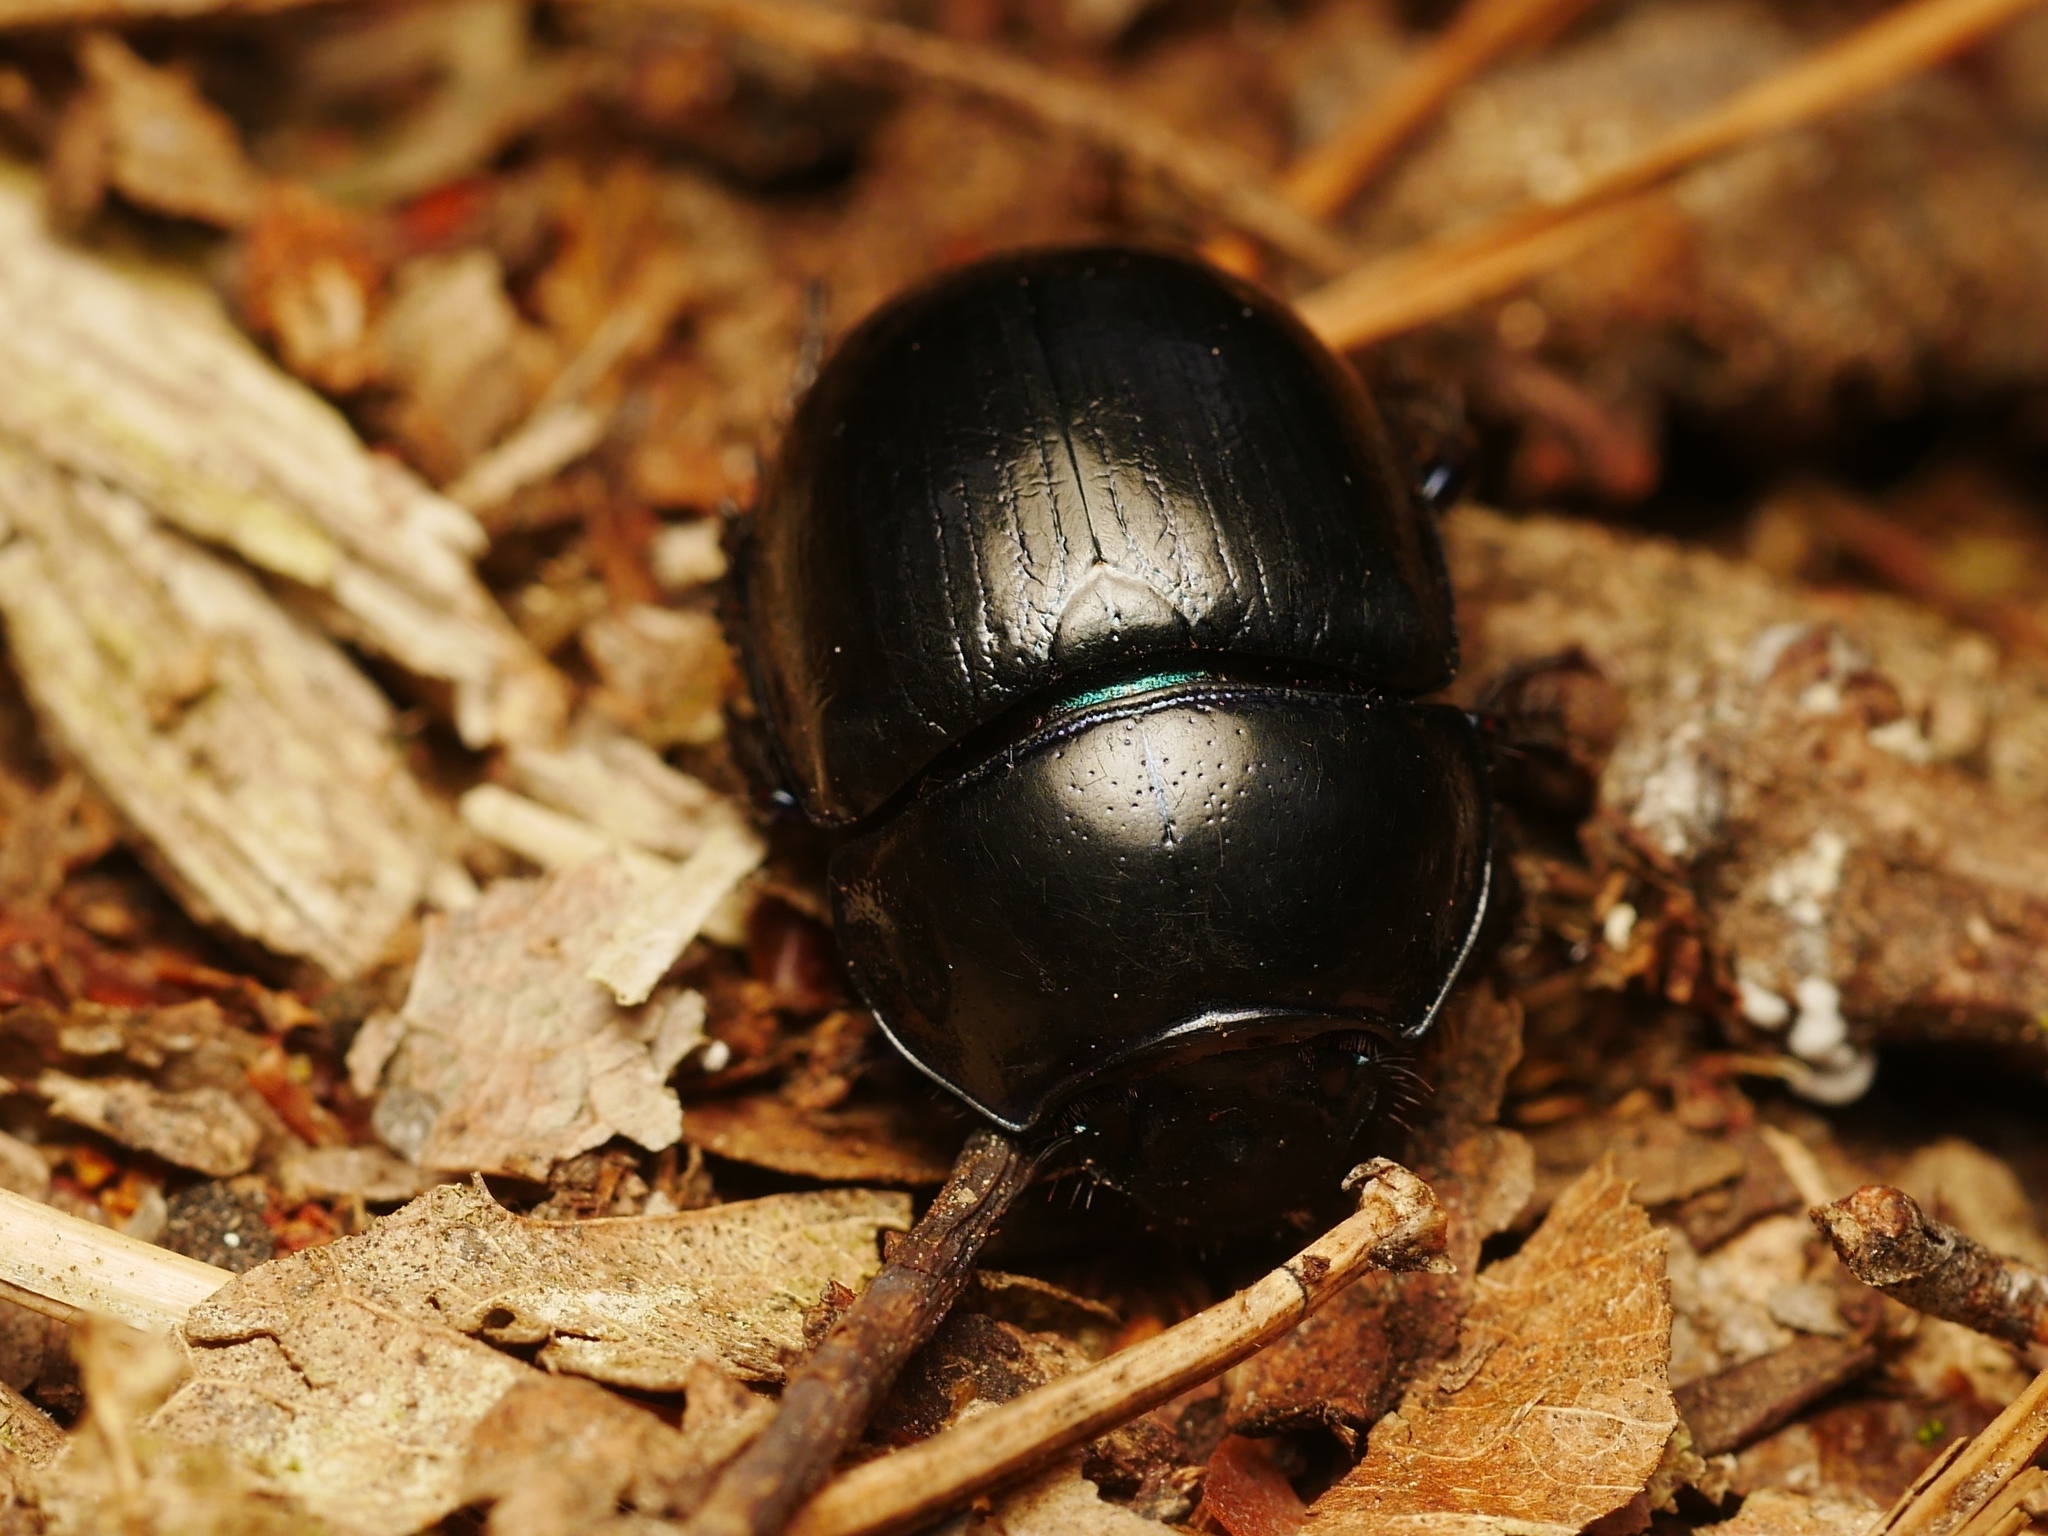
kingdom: Animalia
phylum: Arthropoda
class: Insecta
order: Coleoptera
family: Geotrupidae
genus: Anoplotrupes
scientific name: Anoplotrupes stercorosus
